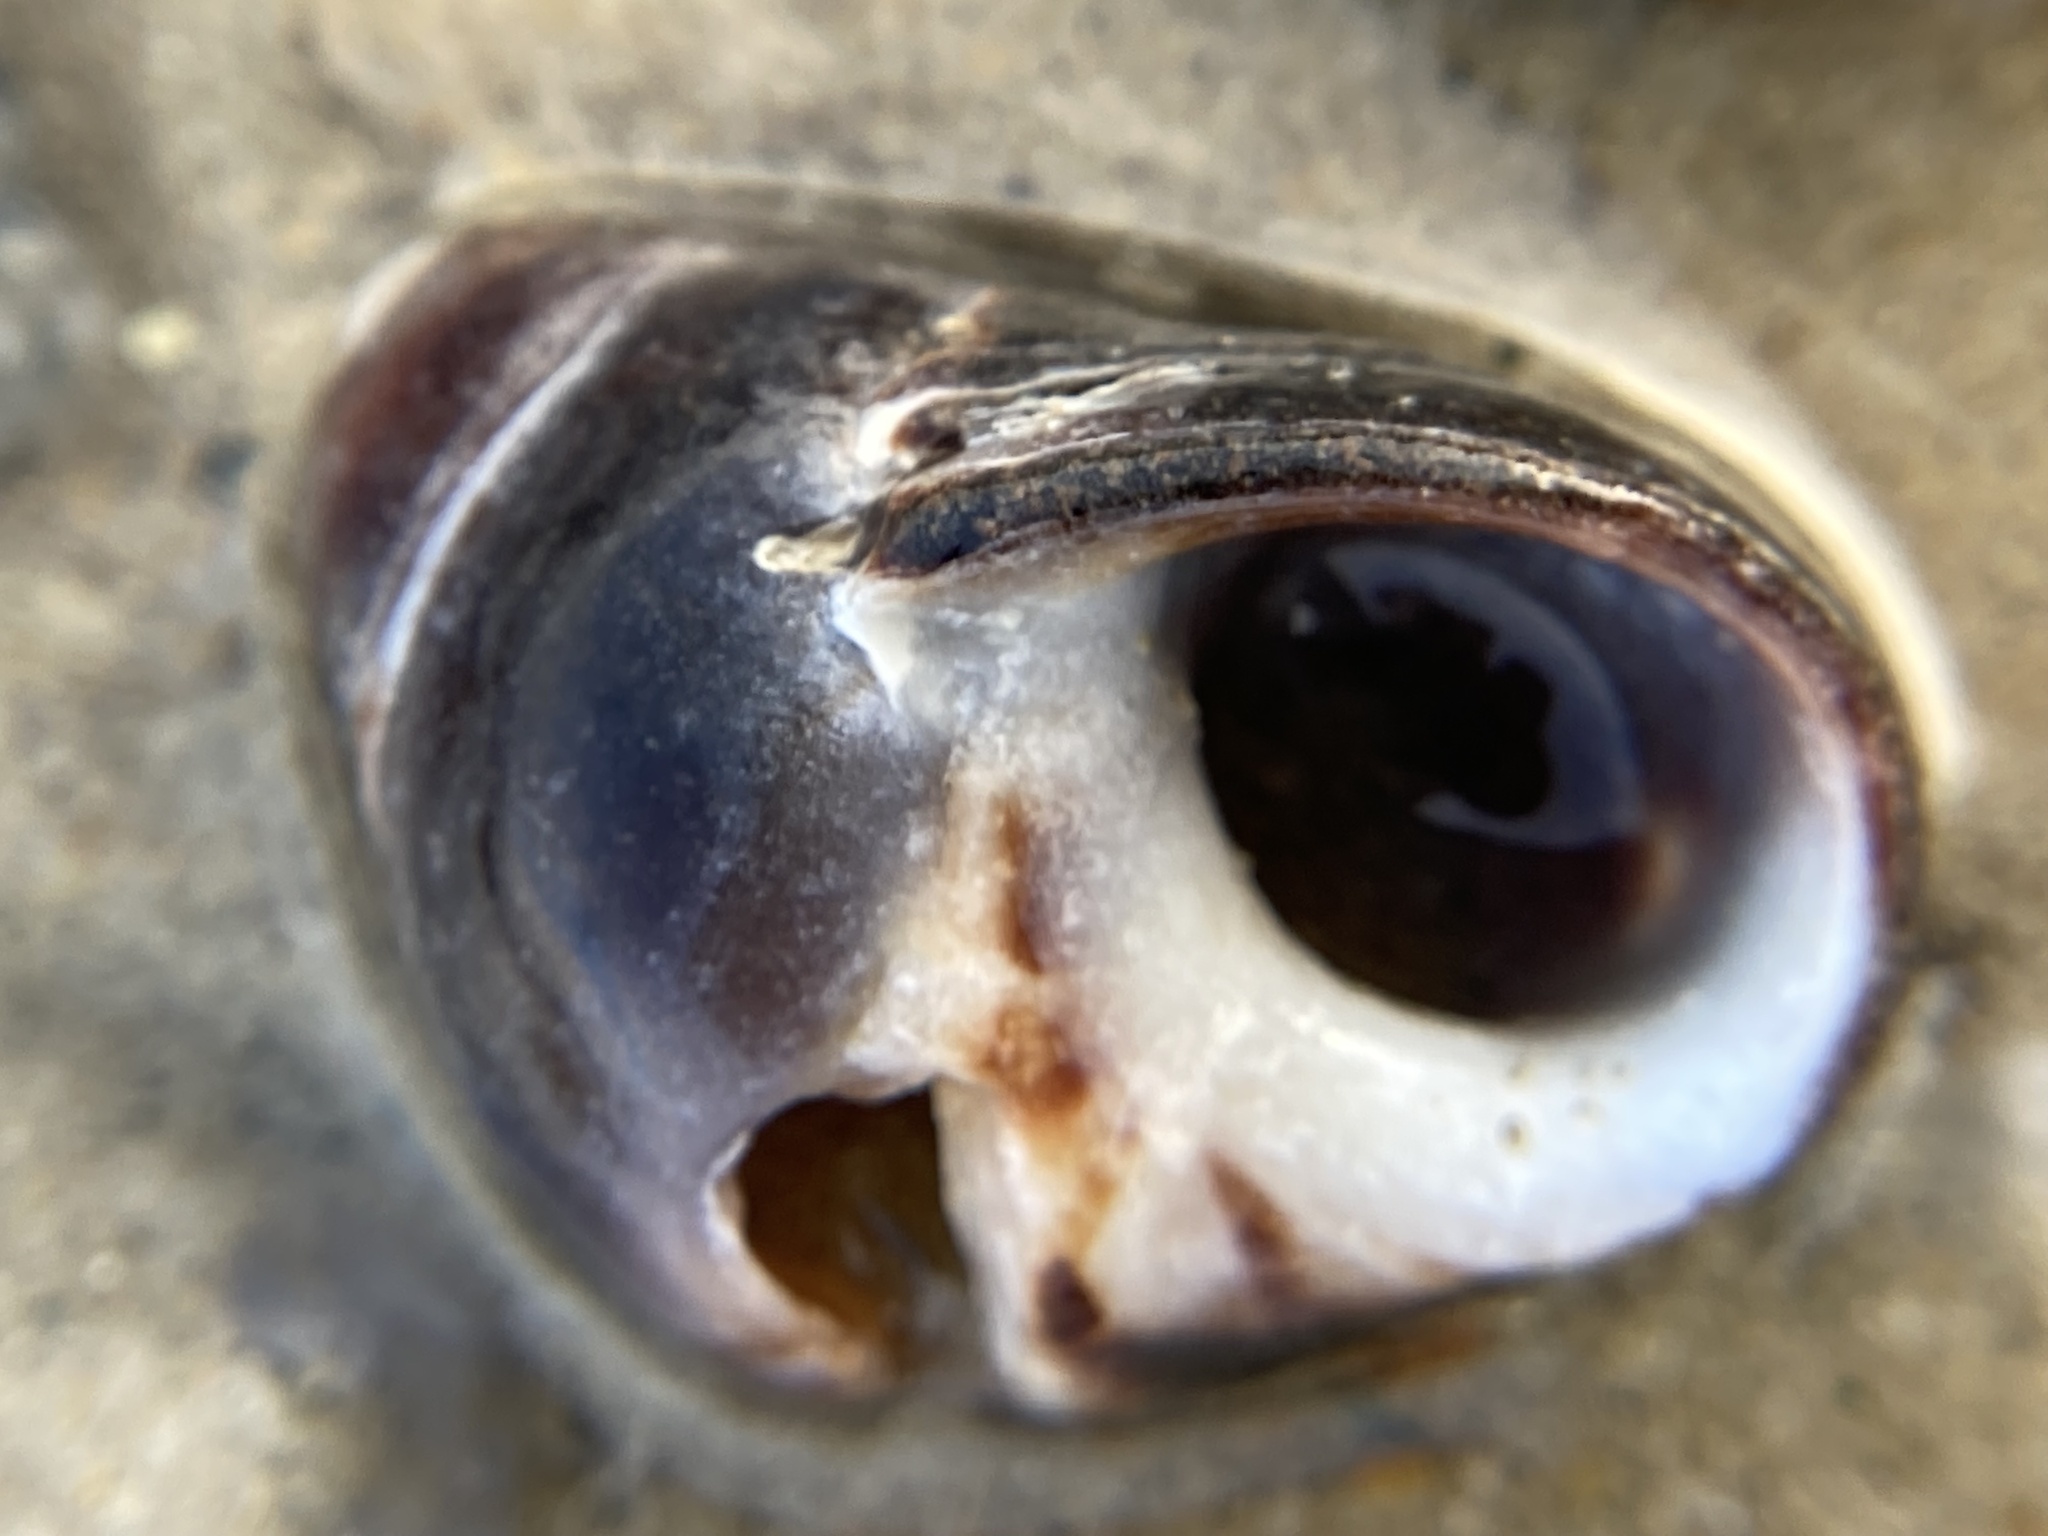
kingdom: Animalia
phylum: Mollusca
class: Gastropoda
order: Littorinimorpha
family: Littorinidae
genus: Littorina
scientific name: Littorina littorea
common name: Common periwinkle
